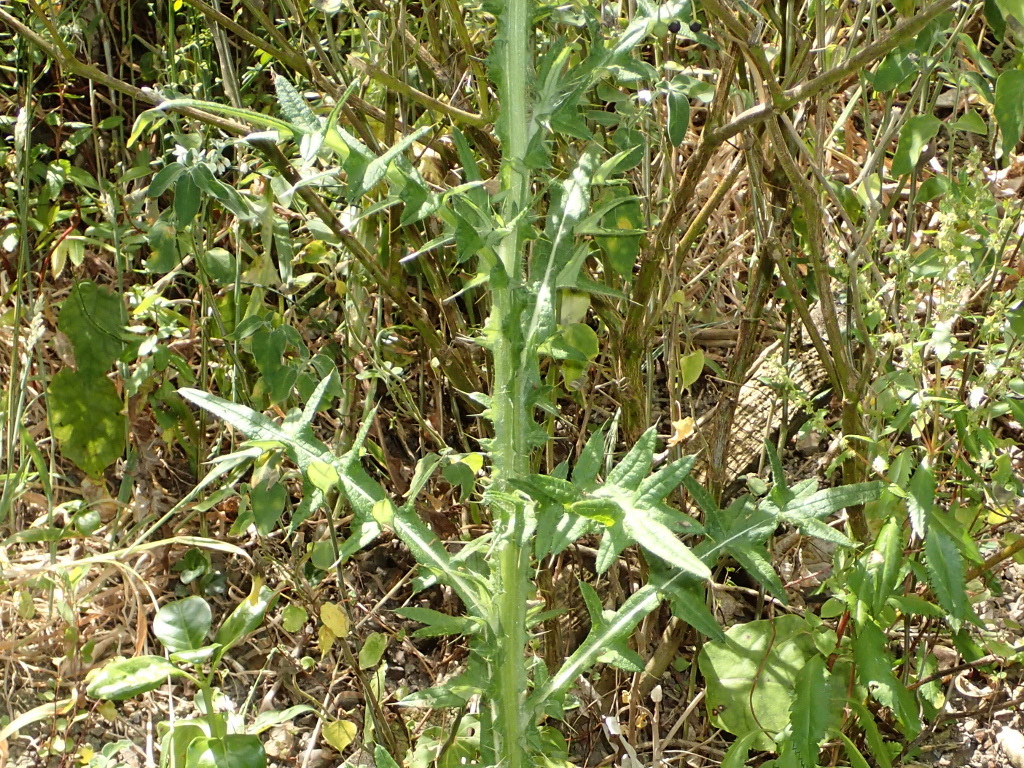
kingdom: Plantae
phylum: Tracheophyta
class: Magnoliopsida
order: Asterales
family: Asteraceae
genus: Cirsium
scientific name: Cirsium vulgare
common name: Bull thistle
